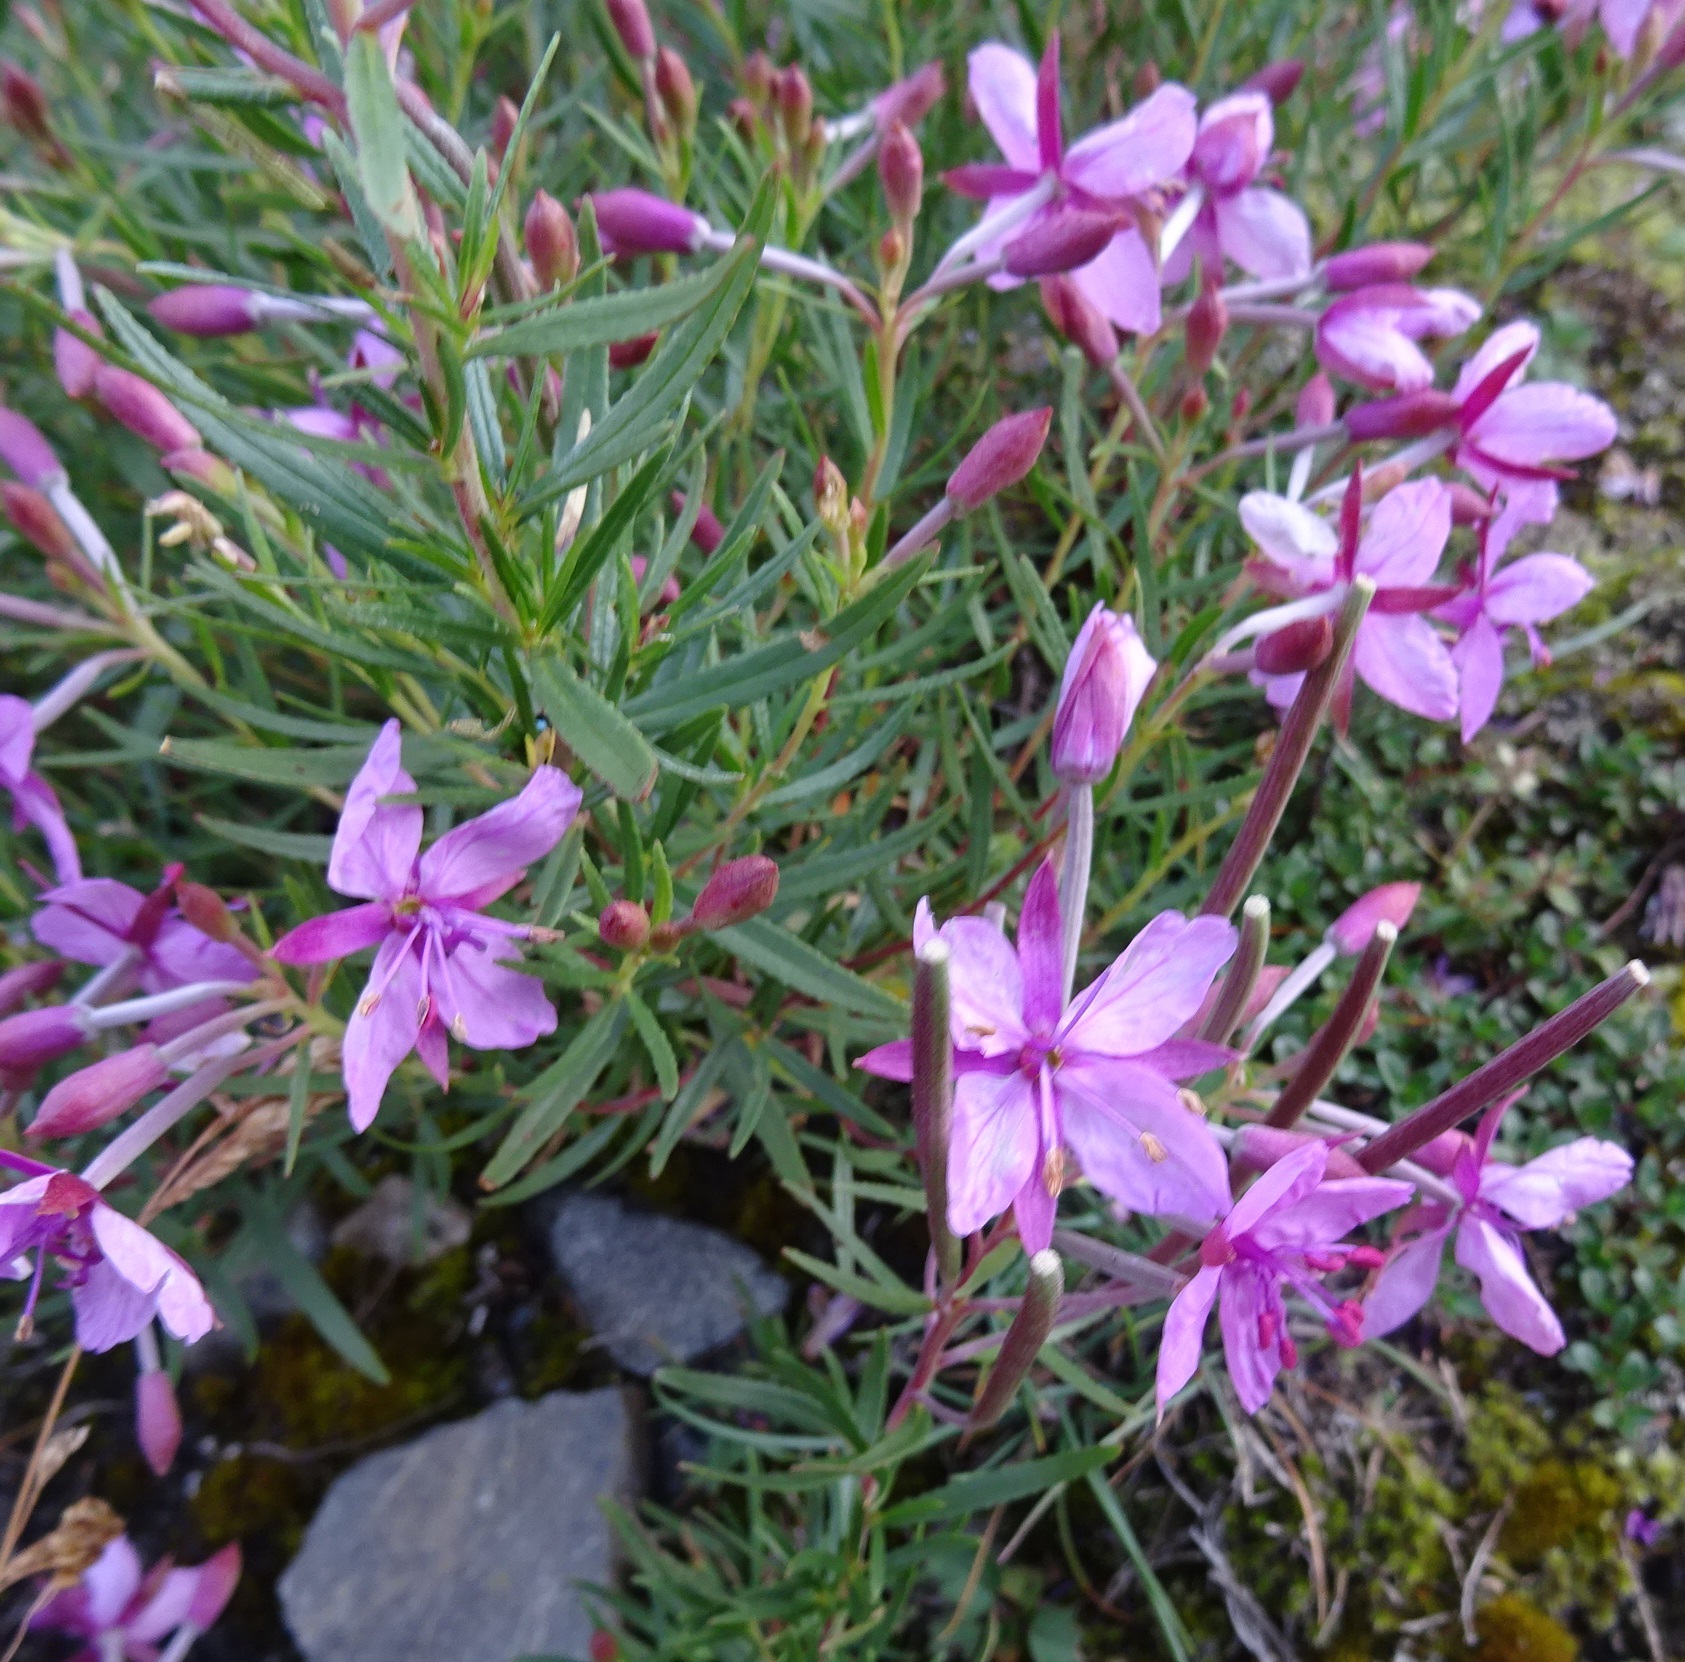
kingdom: Plantae
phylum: Tracheophyta
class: Magnoliopsida
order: Myrtales
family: Onagraceae
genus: Chamaenerion
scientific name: Chamaenerion fleischeri
